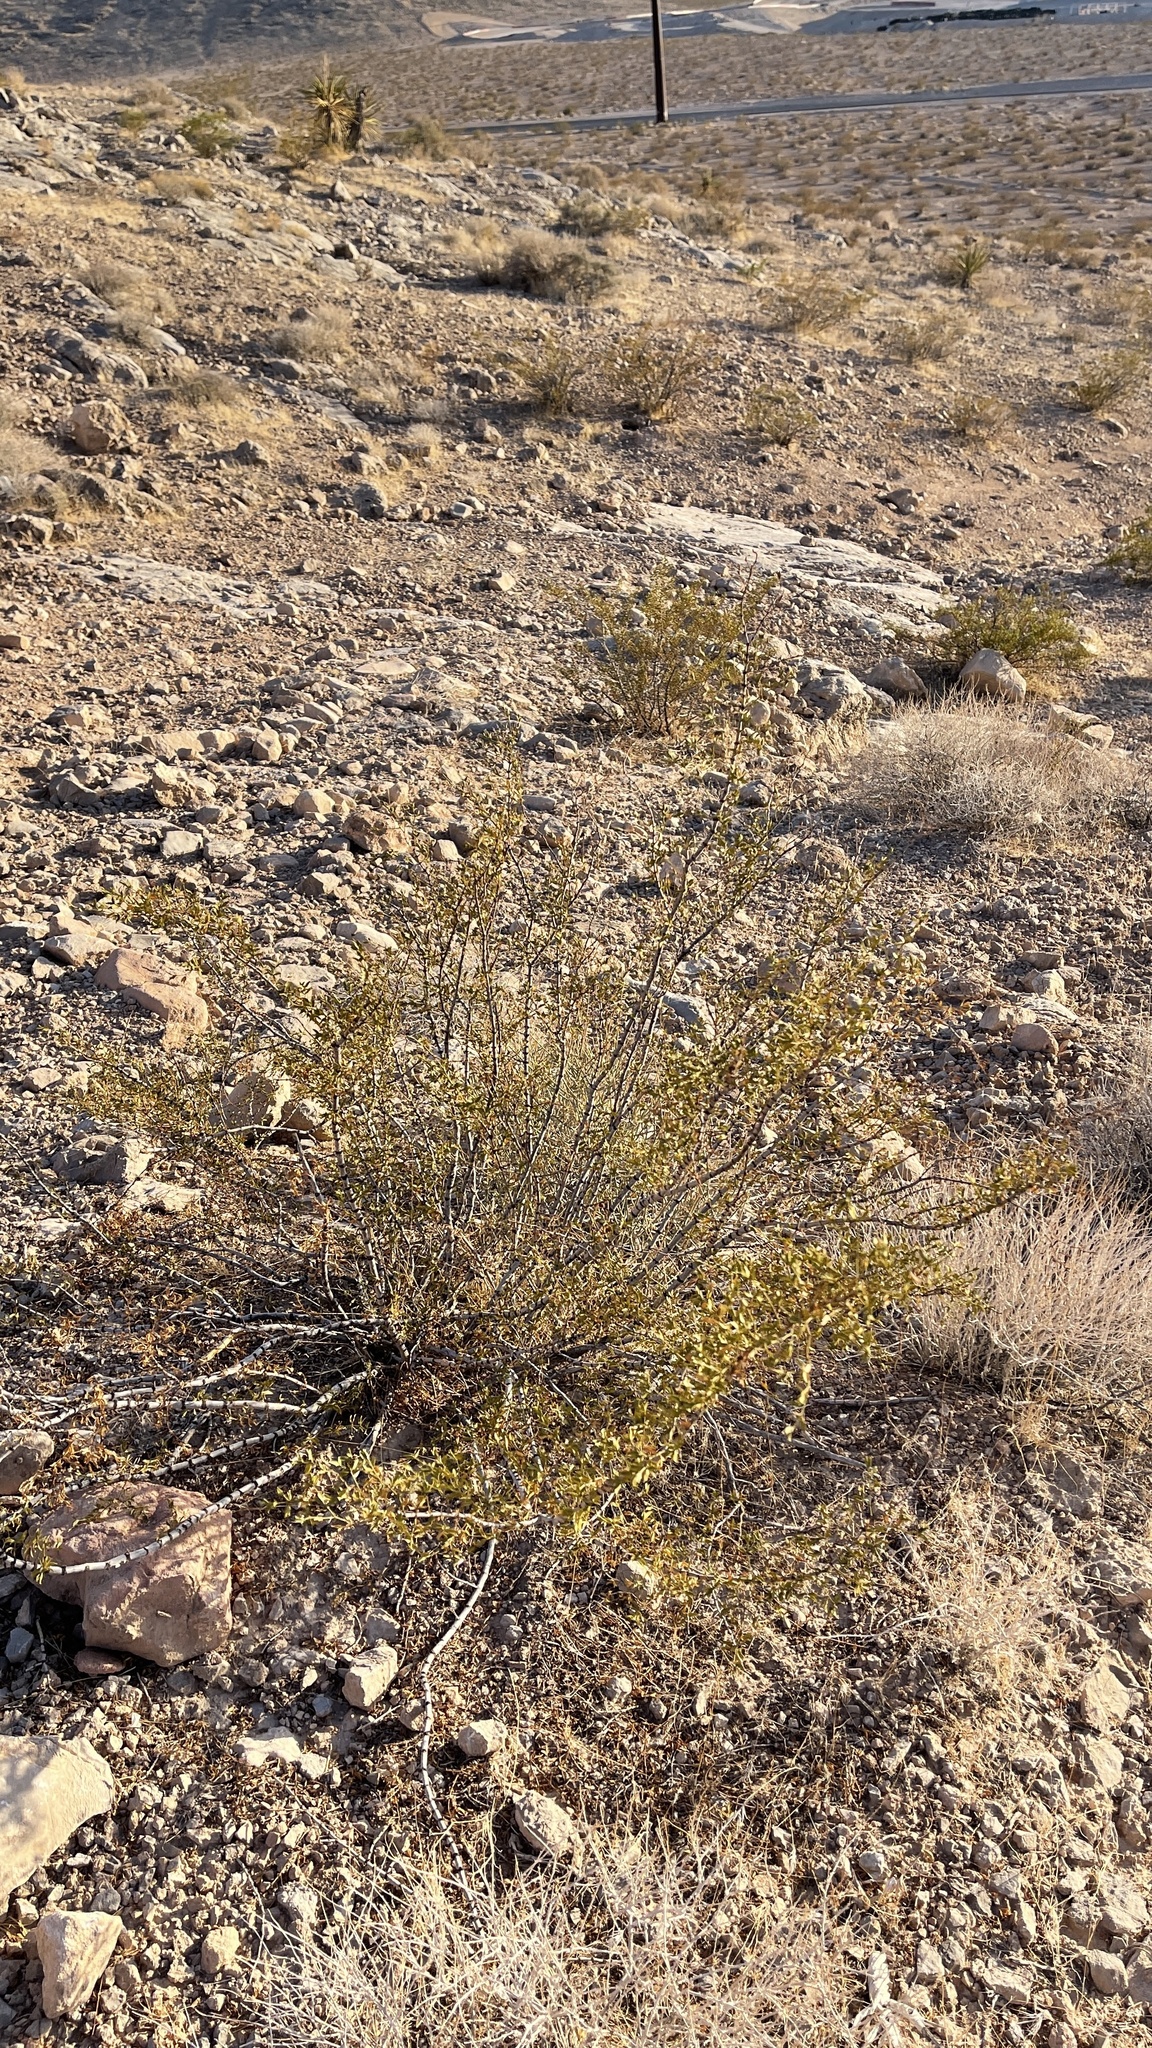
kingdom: Plantae
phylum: Tracheophyta
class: Magnoliopsida
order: Zygophyllales
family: Zygophyllaceae
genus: Larrea
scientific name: Larrea tridentata
